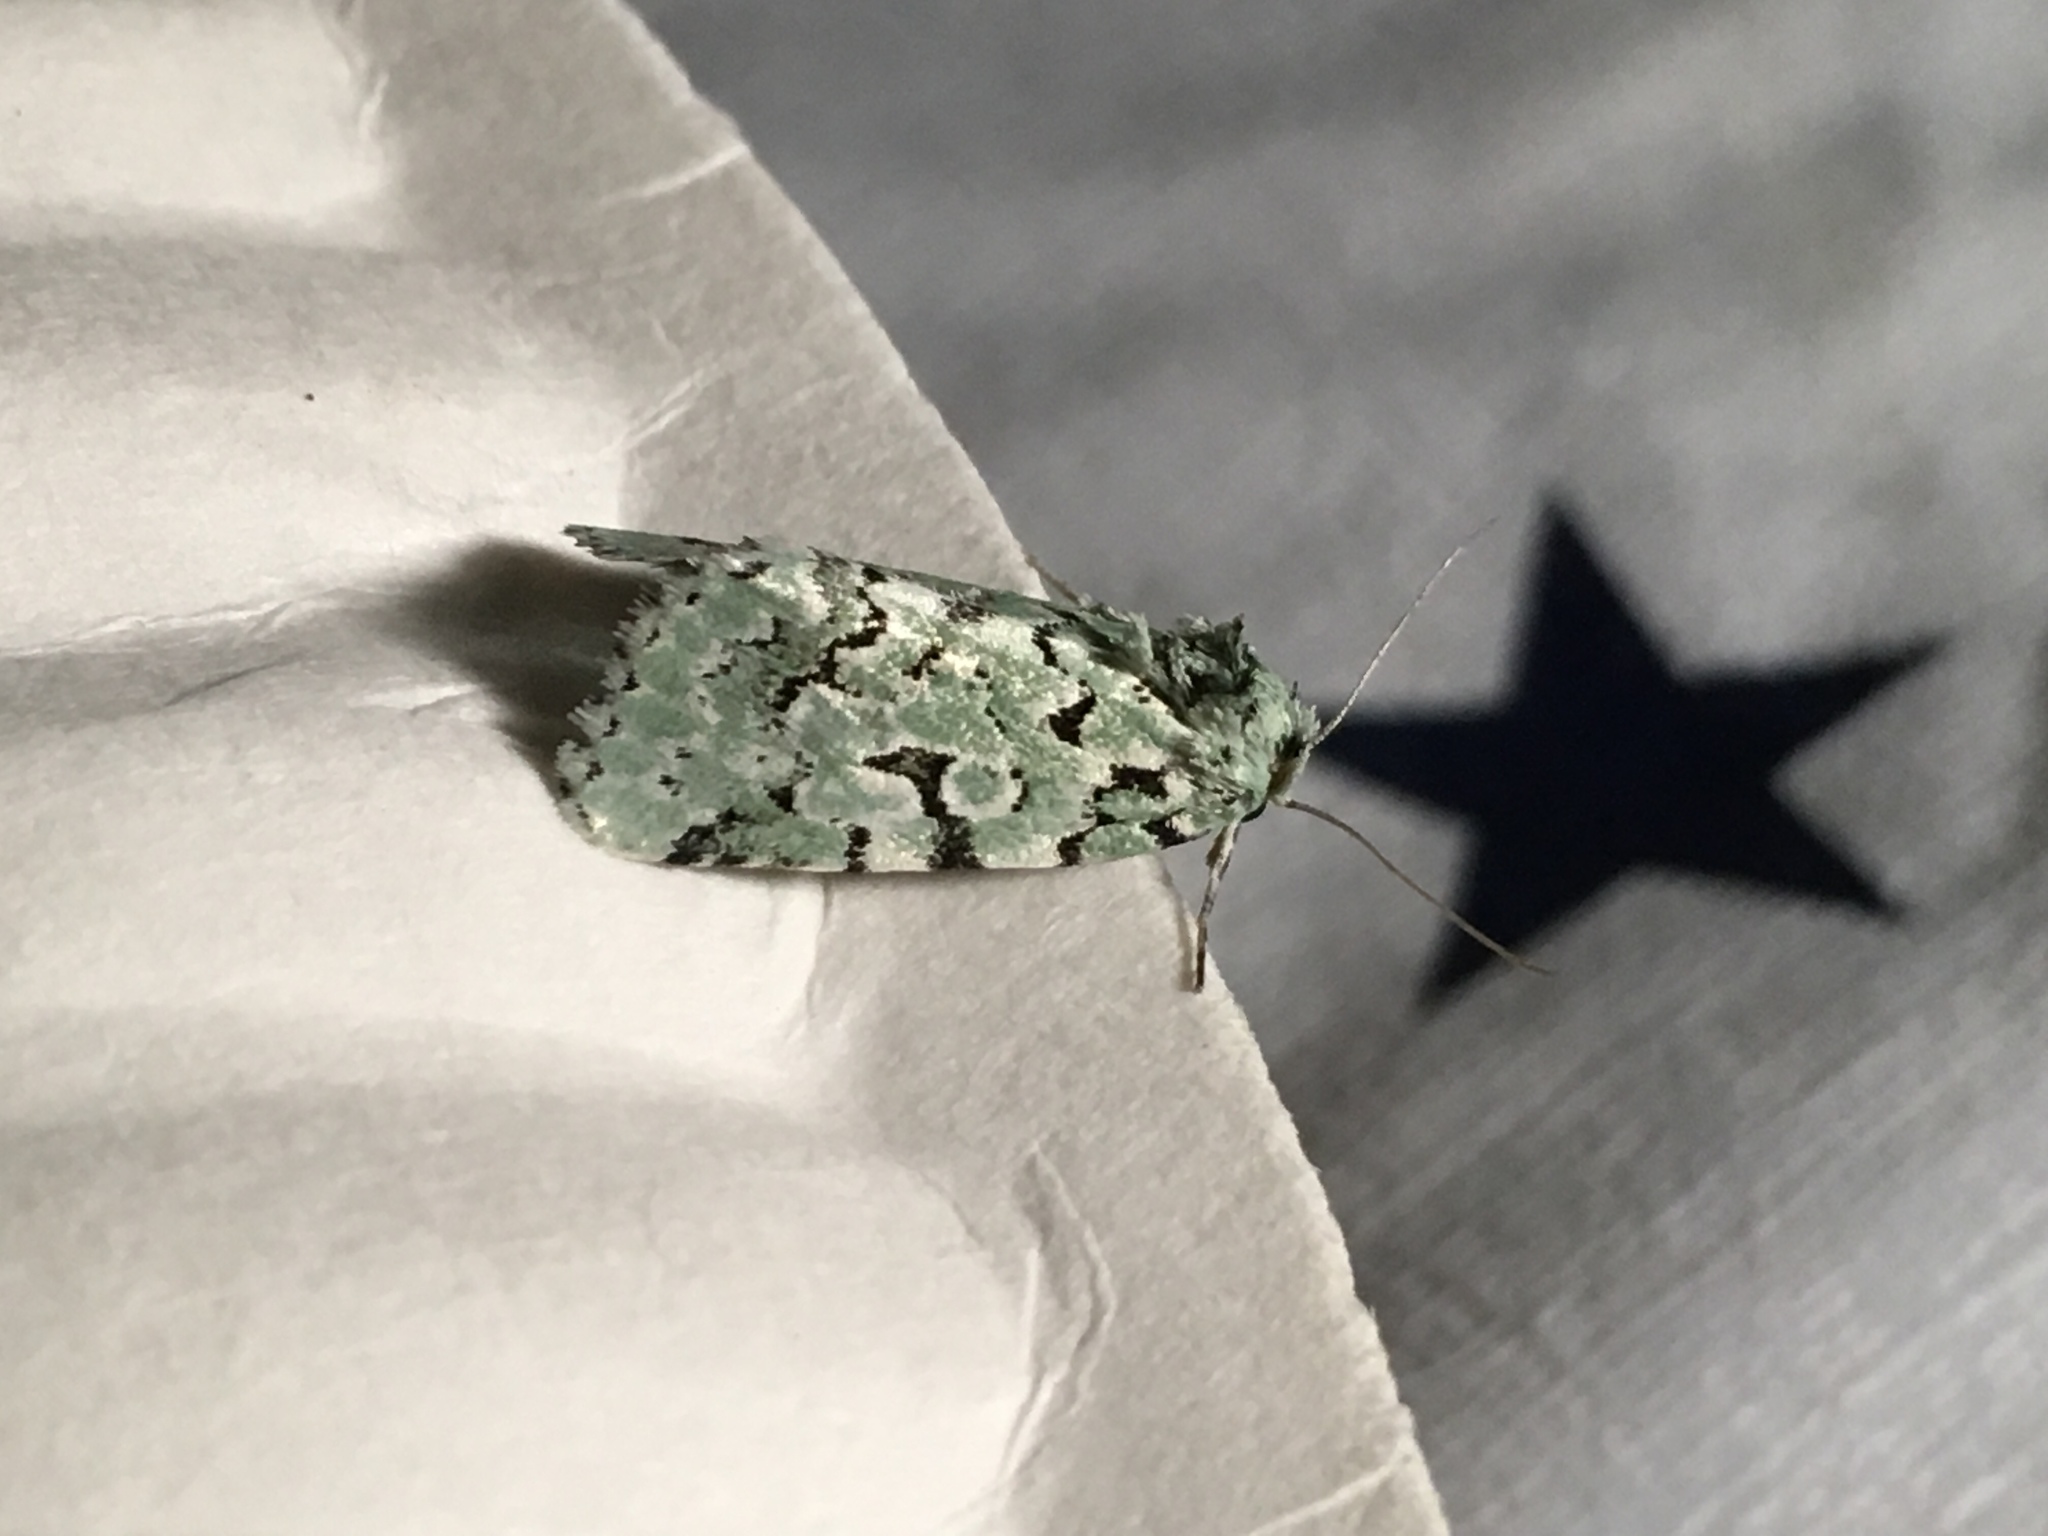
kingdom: Animalia
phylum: Arthropoda
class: Insecta
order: Lepidoptera
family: Noctuidae
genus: Bryolymnia
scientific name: Bryolymnia viridata
